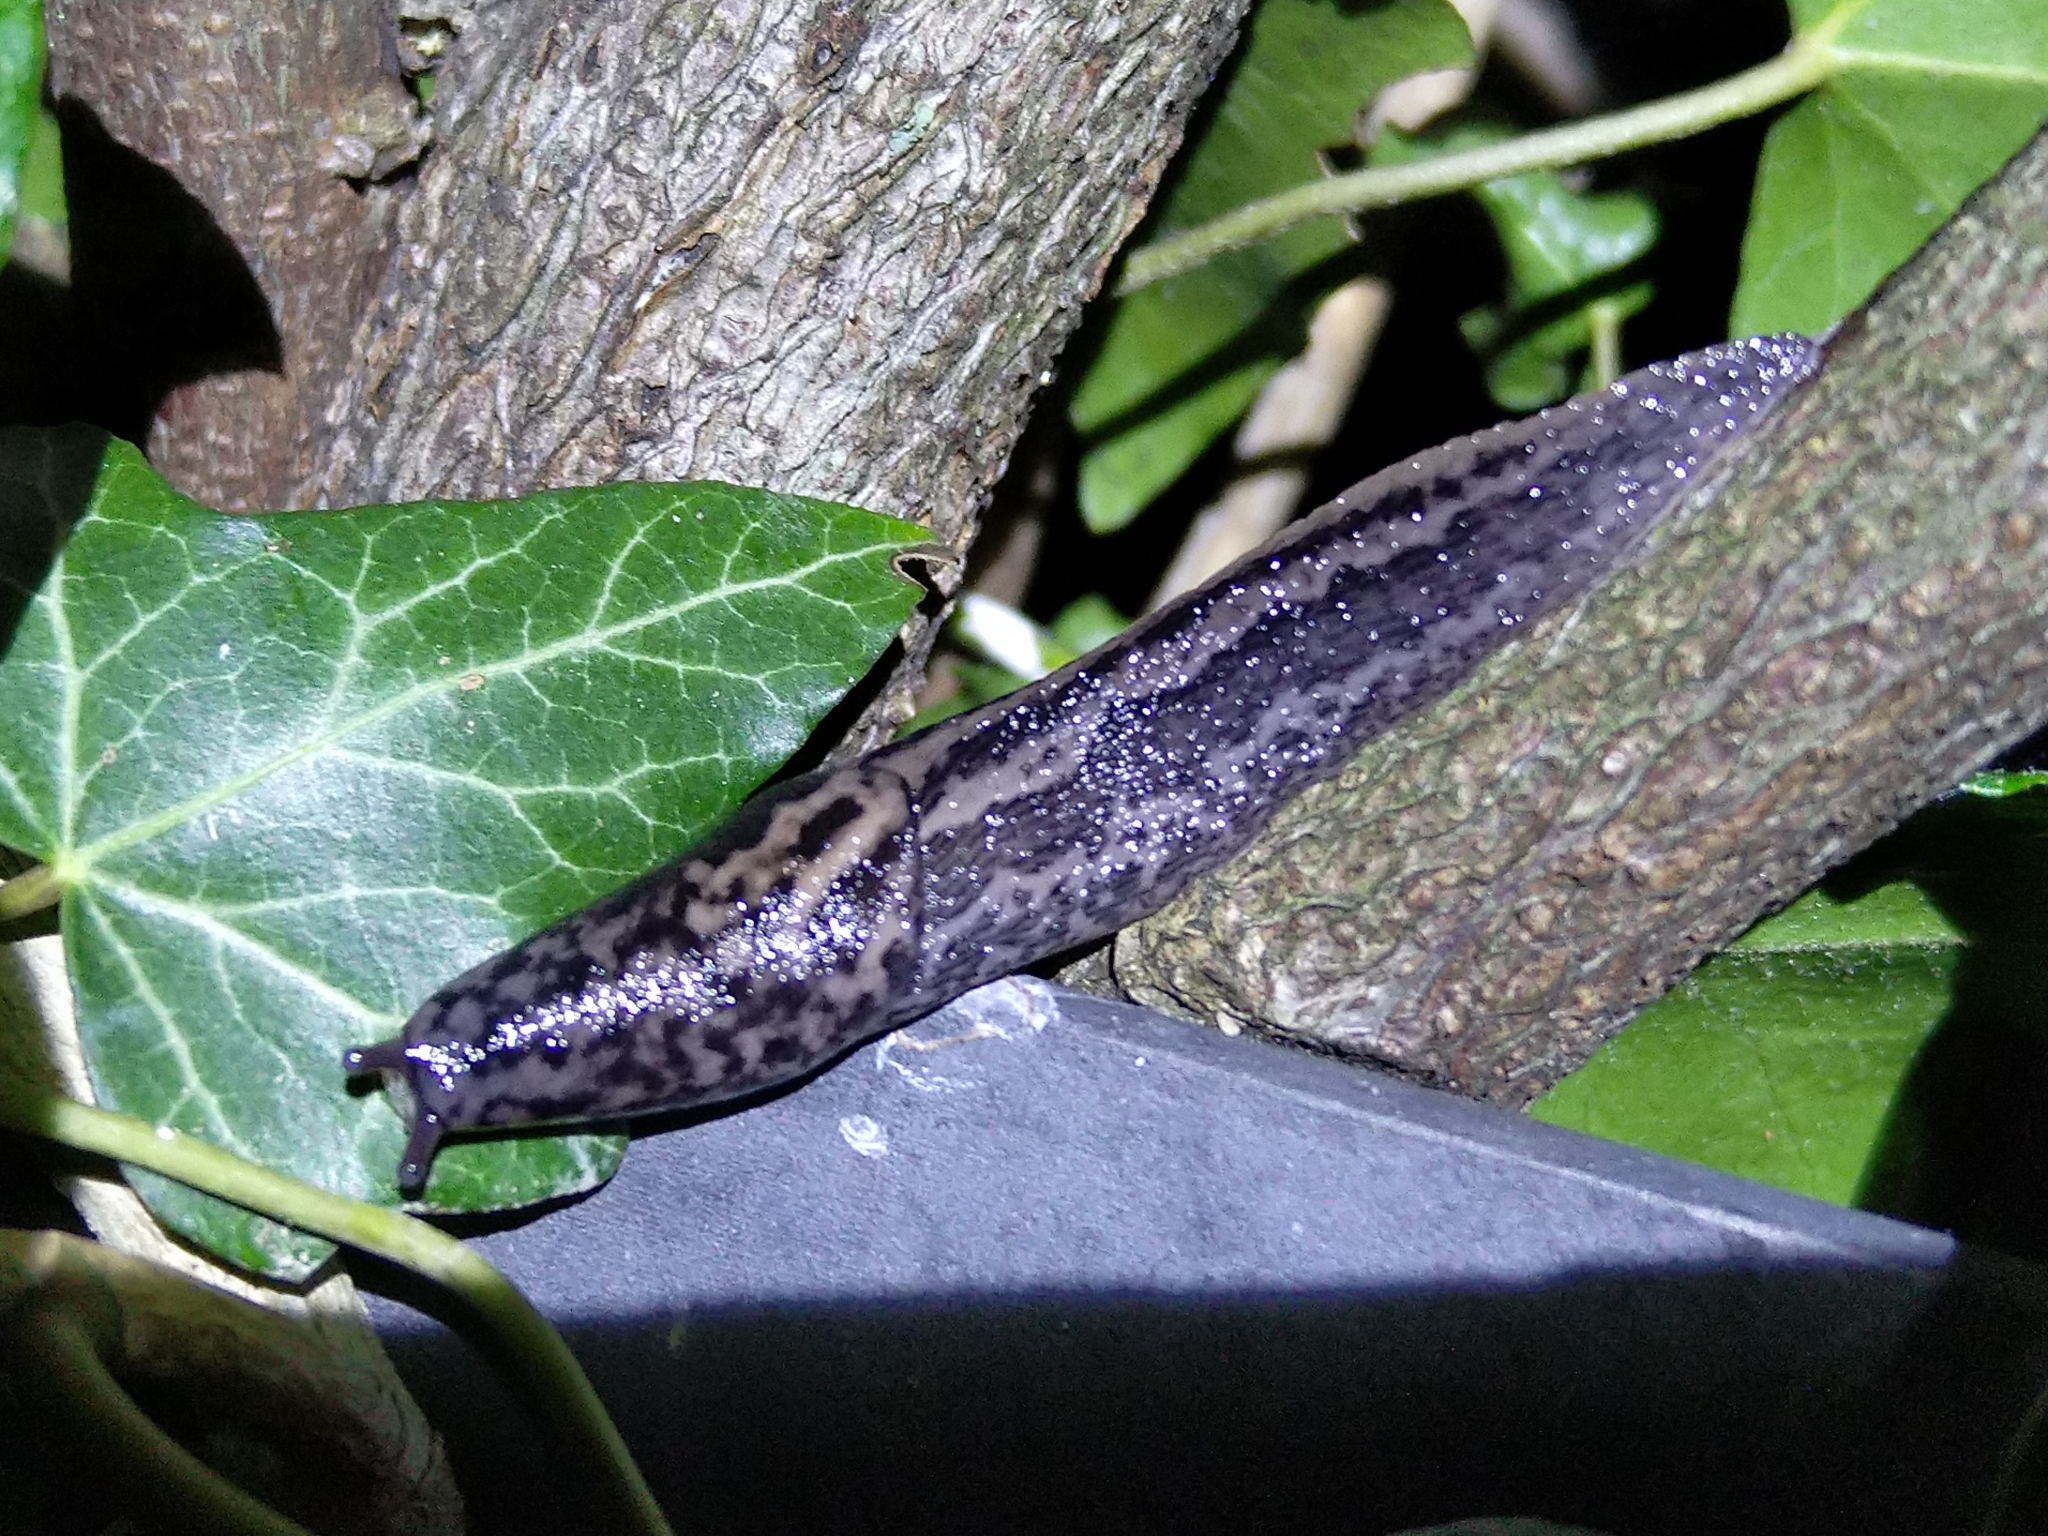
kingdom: Animalia
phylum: Mollusca
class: Gastropoda
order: Stylommatophora
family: Limacidae
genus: Limax
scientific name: Limax maximus
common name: Great grey slug
